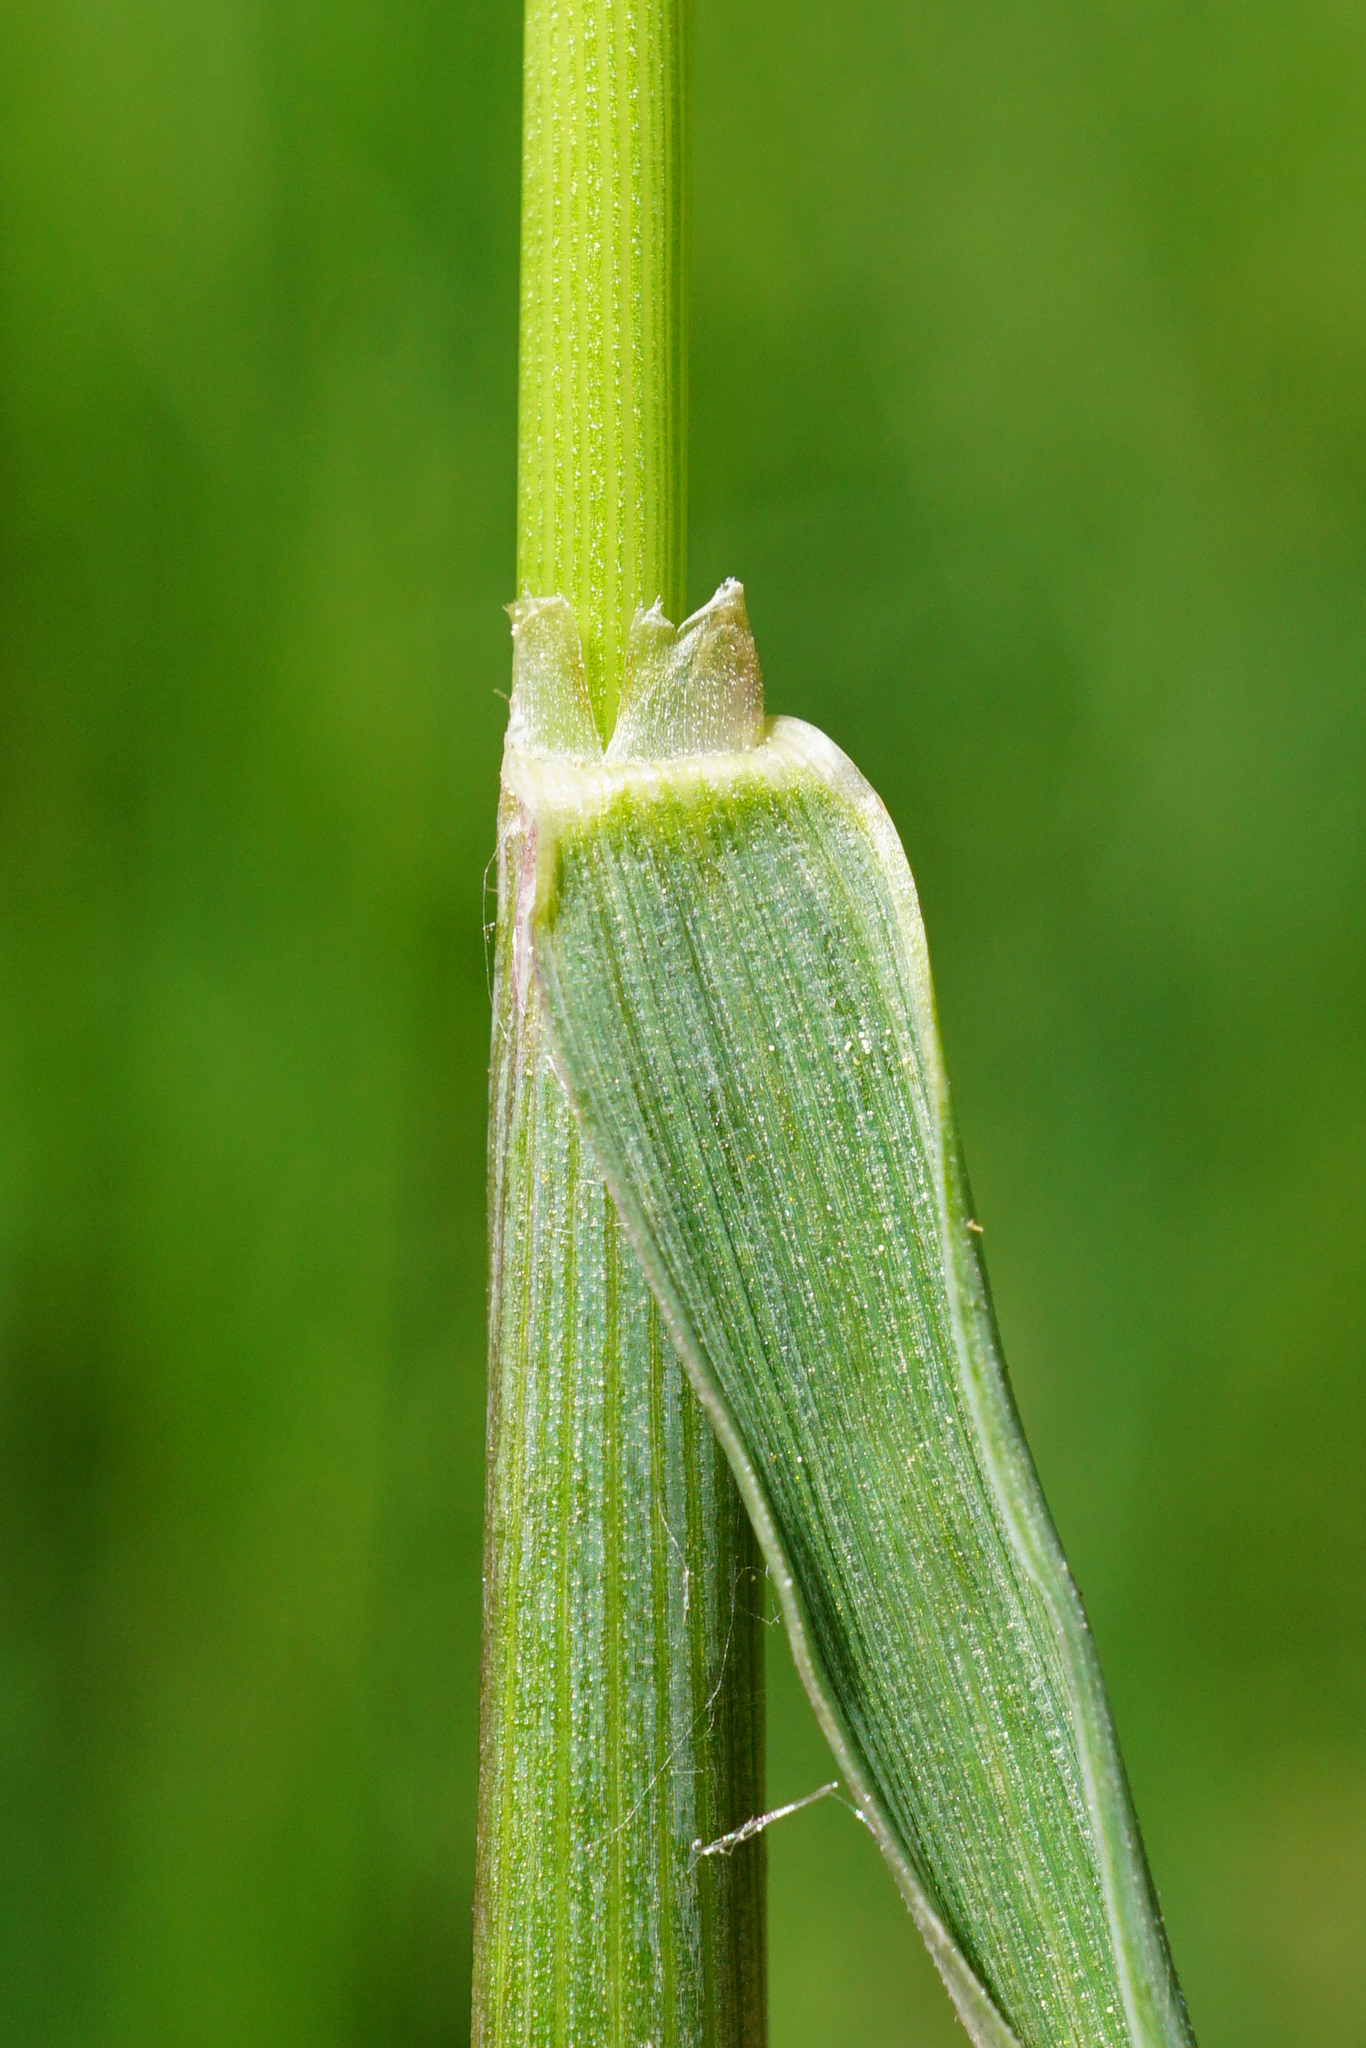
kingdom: Plantae
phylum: Tracheophyta
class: Liliopsida
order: Poales
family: Poaceae
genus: Alopecurus
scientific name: Alopecurus pratensis
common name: Meadow foxtail
